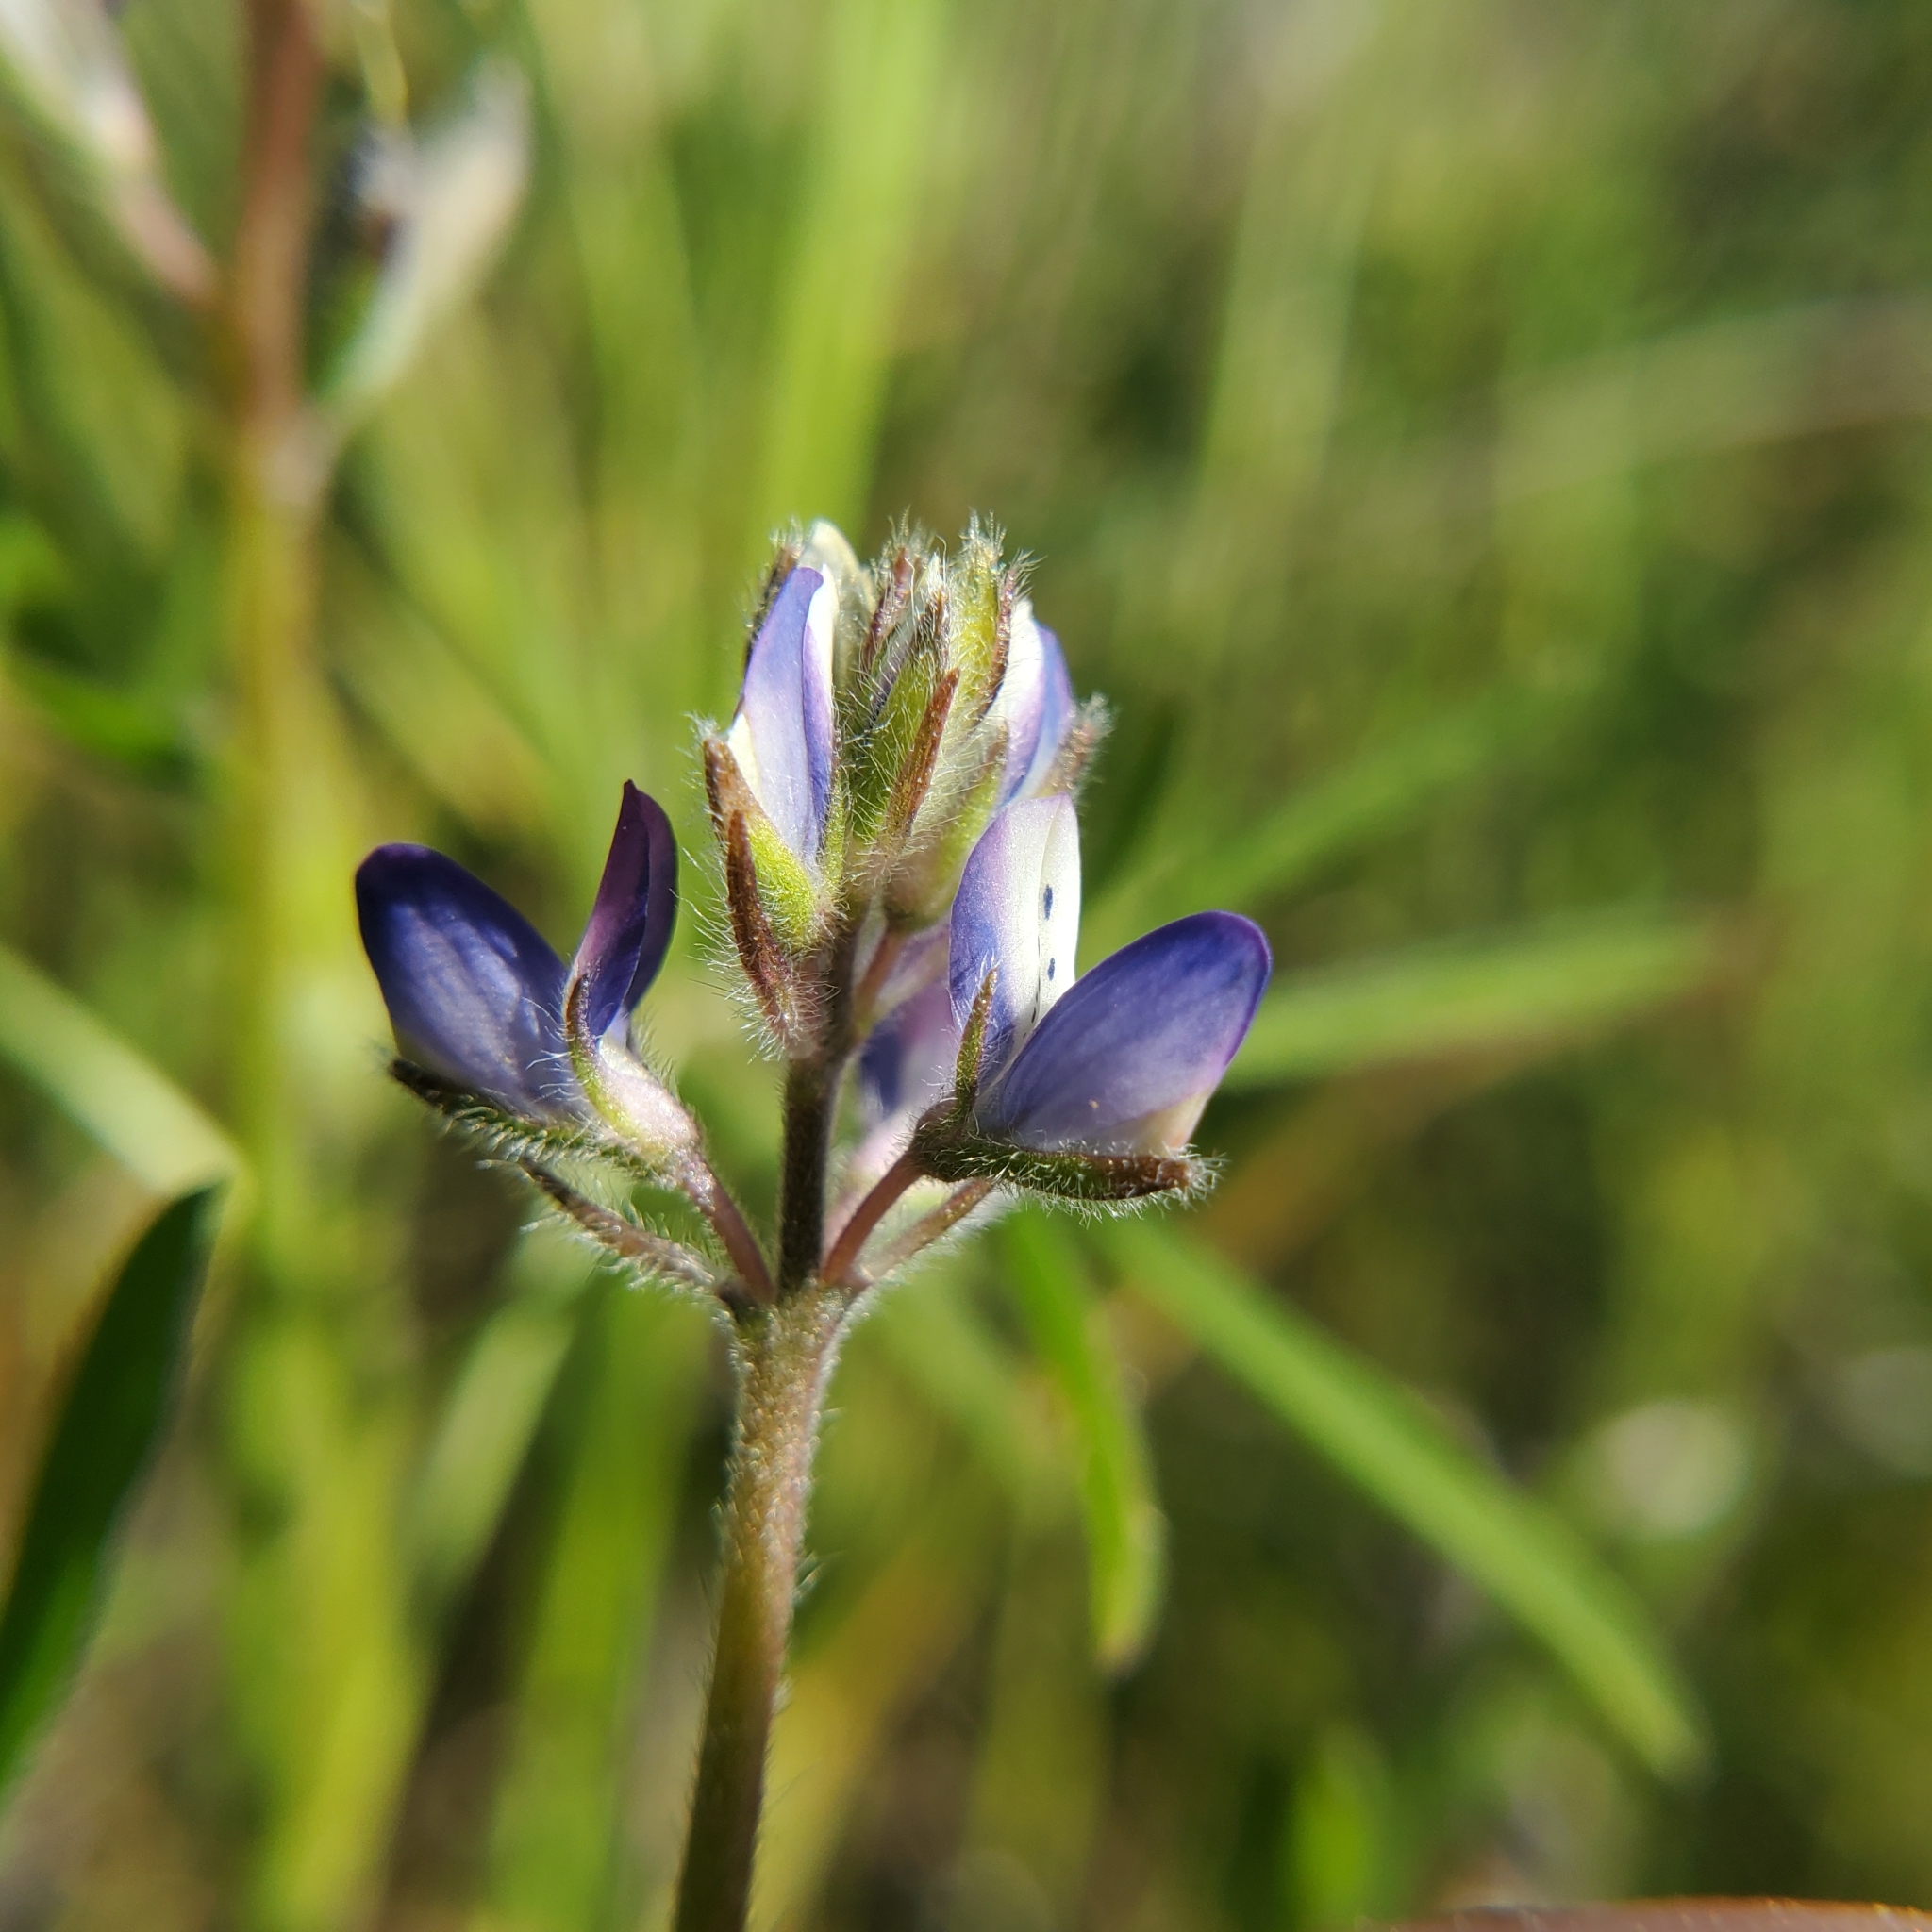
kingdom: Plantae
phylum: Tracheophyta
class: Magnoliopsida
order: Fabales
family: Fabaceae
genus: Lupinus
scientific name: Lupinus bicolor
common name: Miniature lupine
